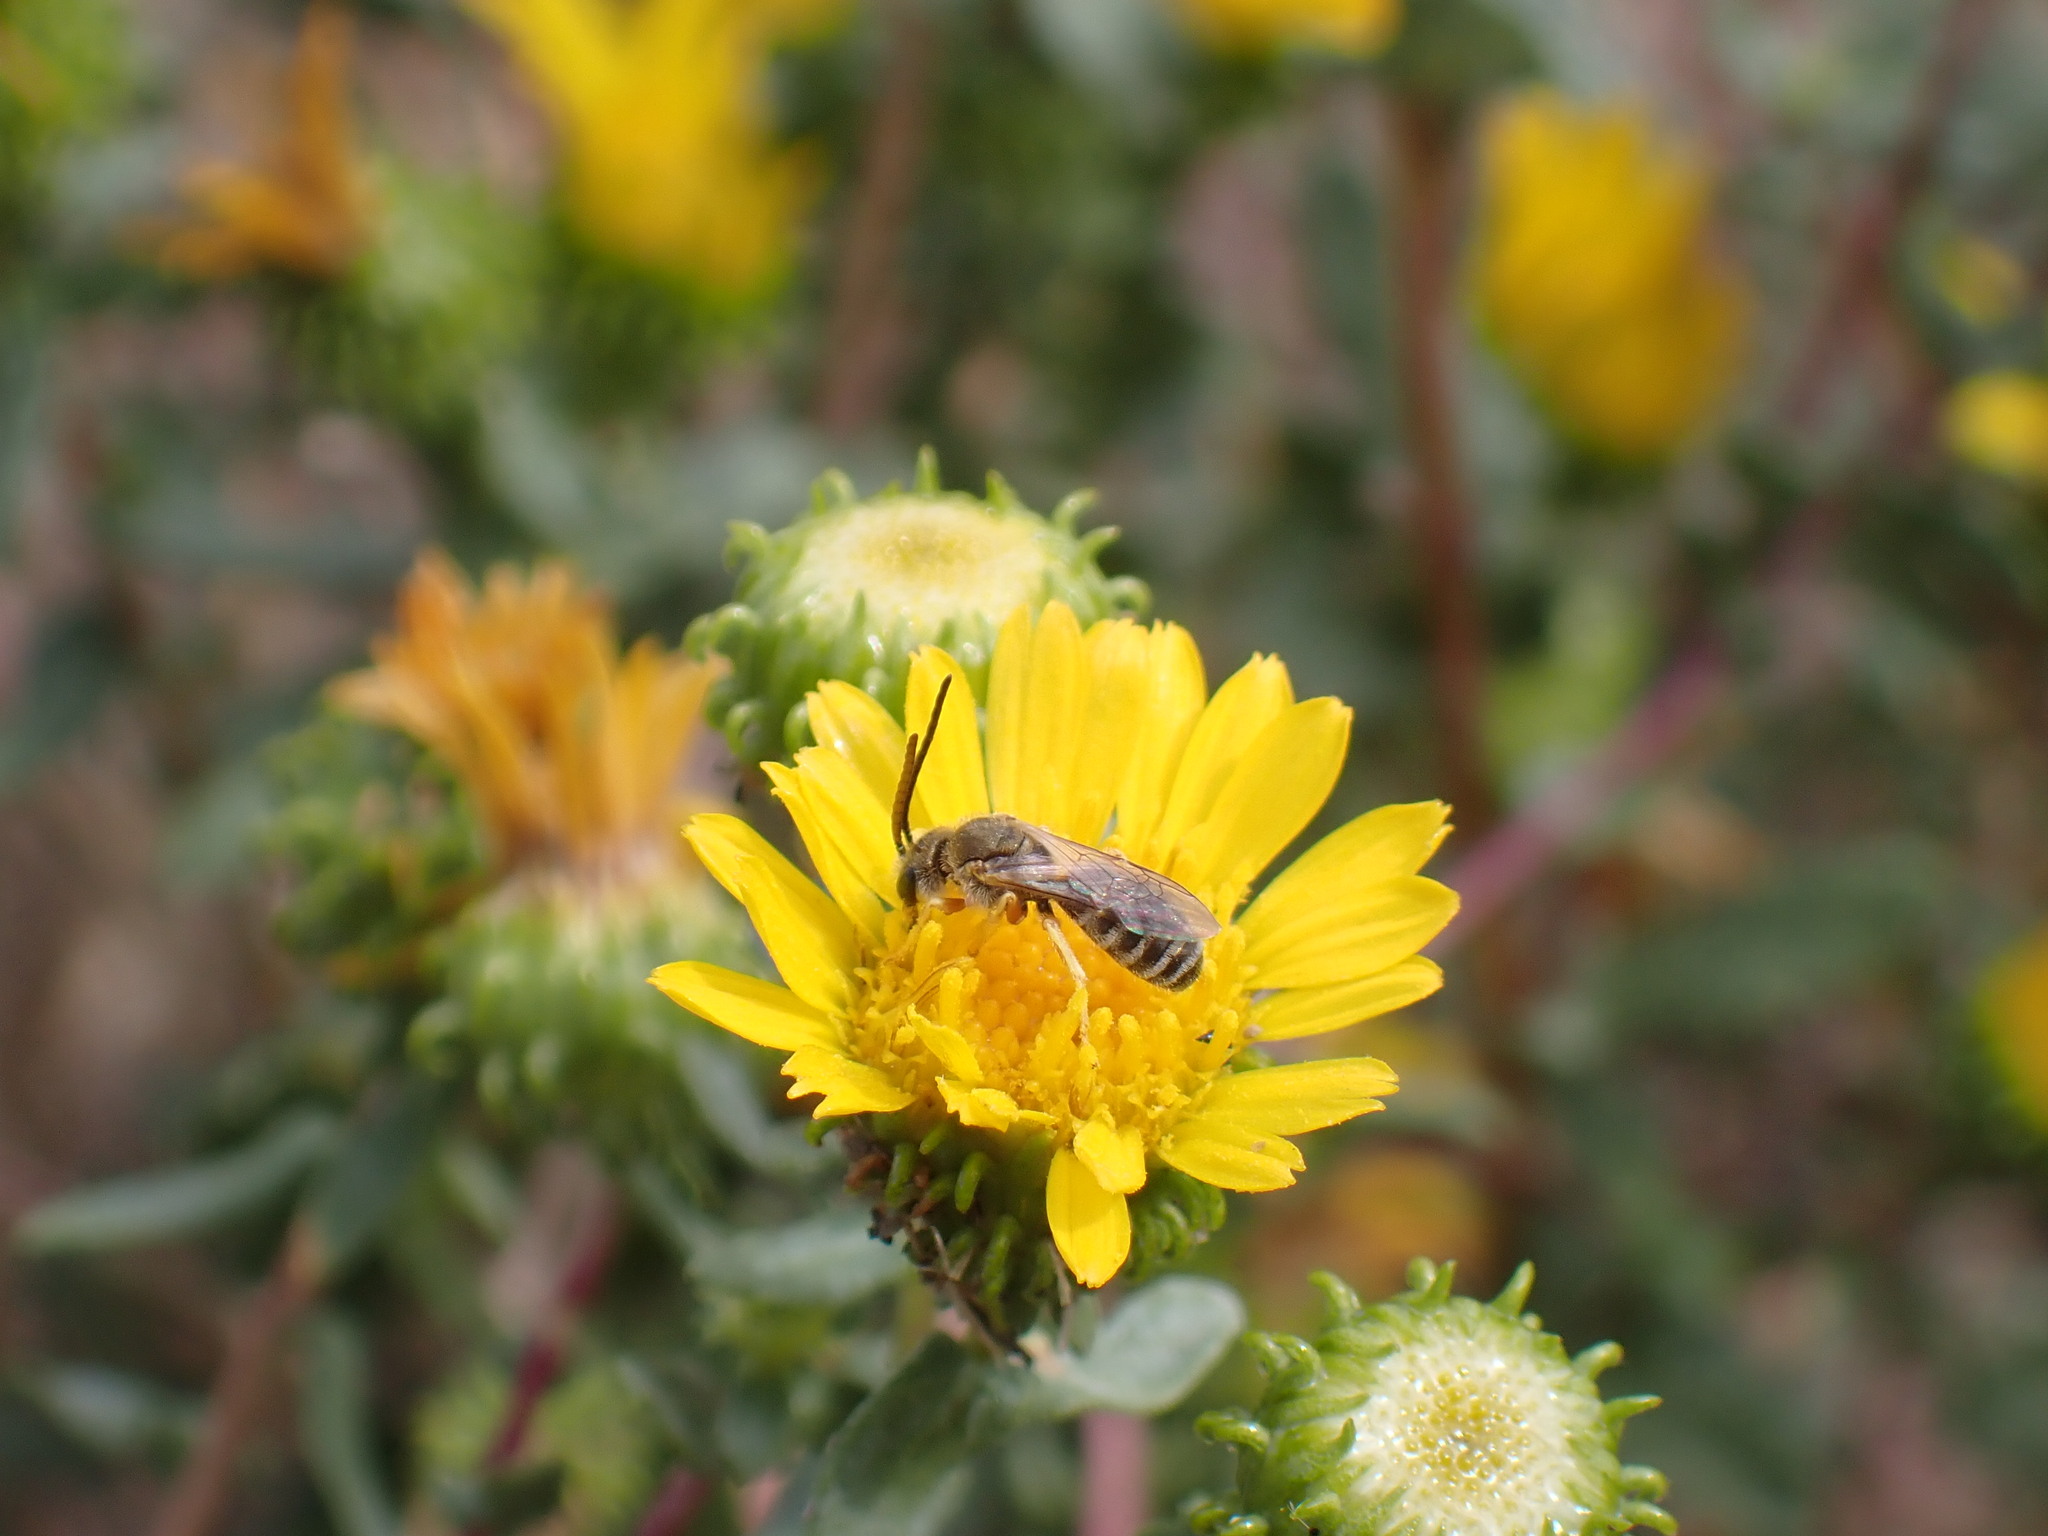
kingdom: Animalia
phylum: Arthropoda
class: Insecta
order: Hymenoptera
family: Halictidae
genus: Halictus
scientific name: Halictus confusus
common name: Southern bronze furrow bee
